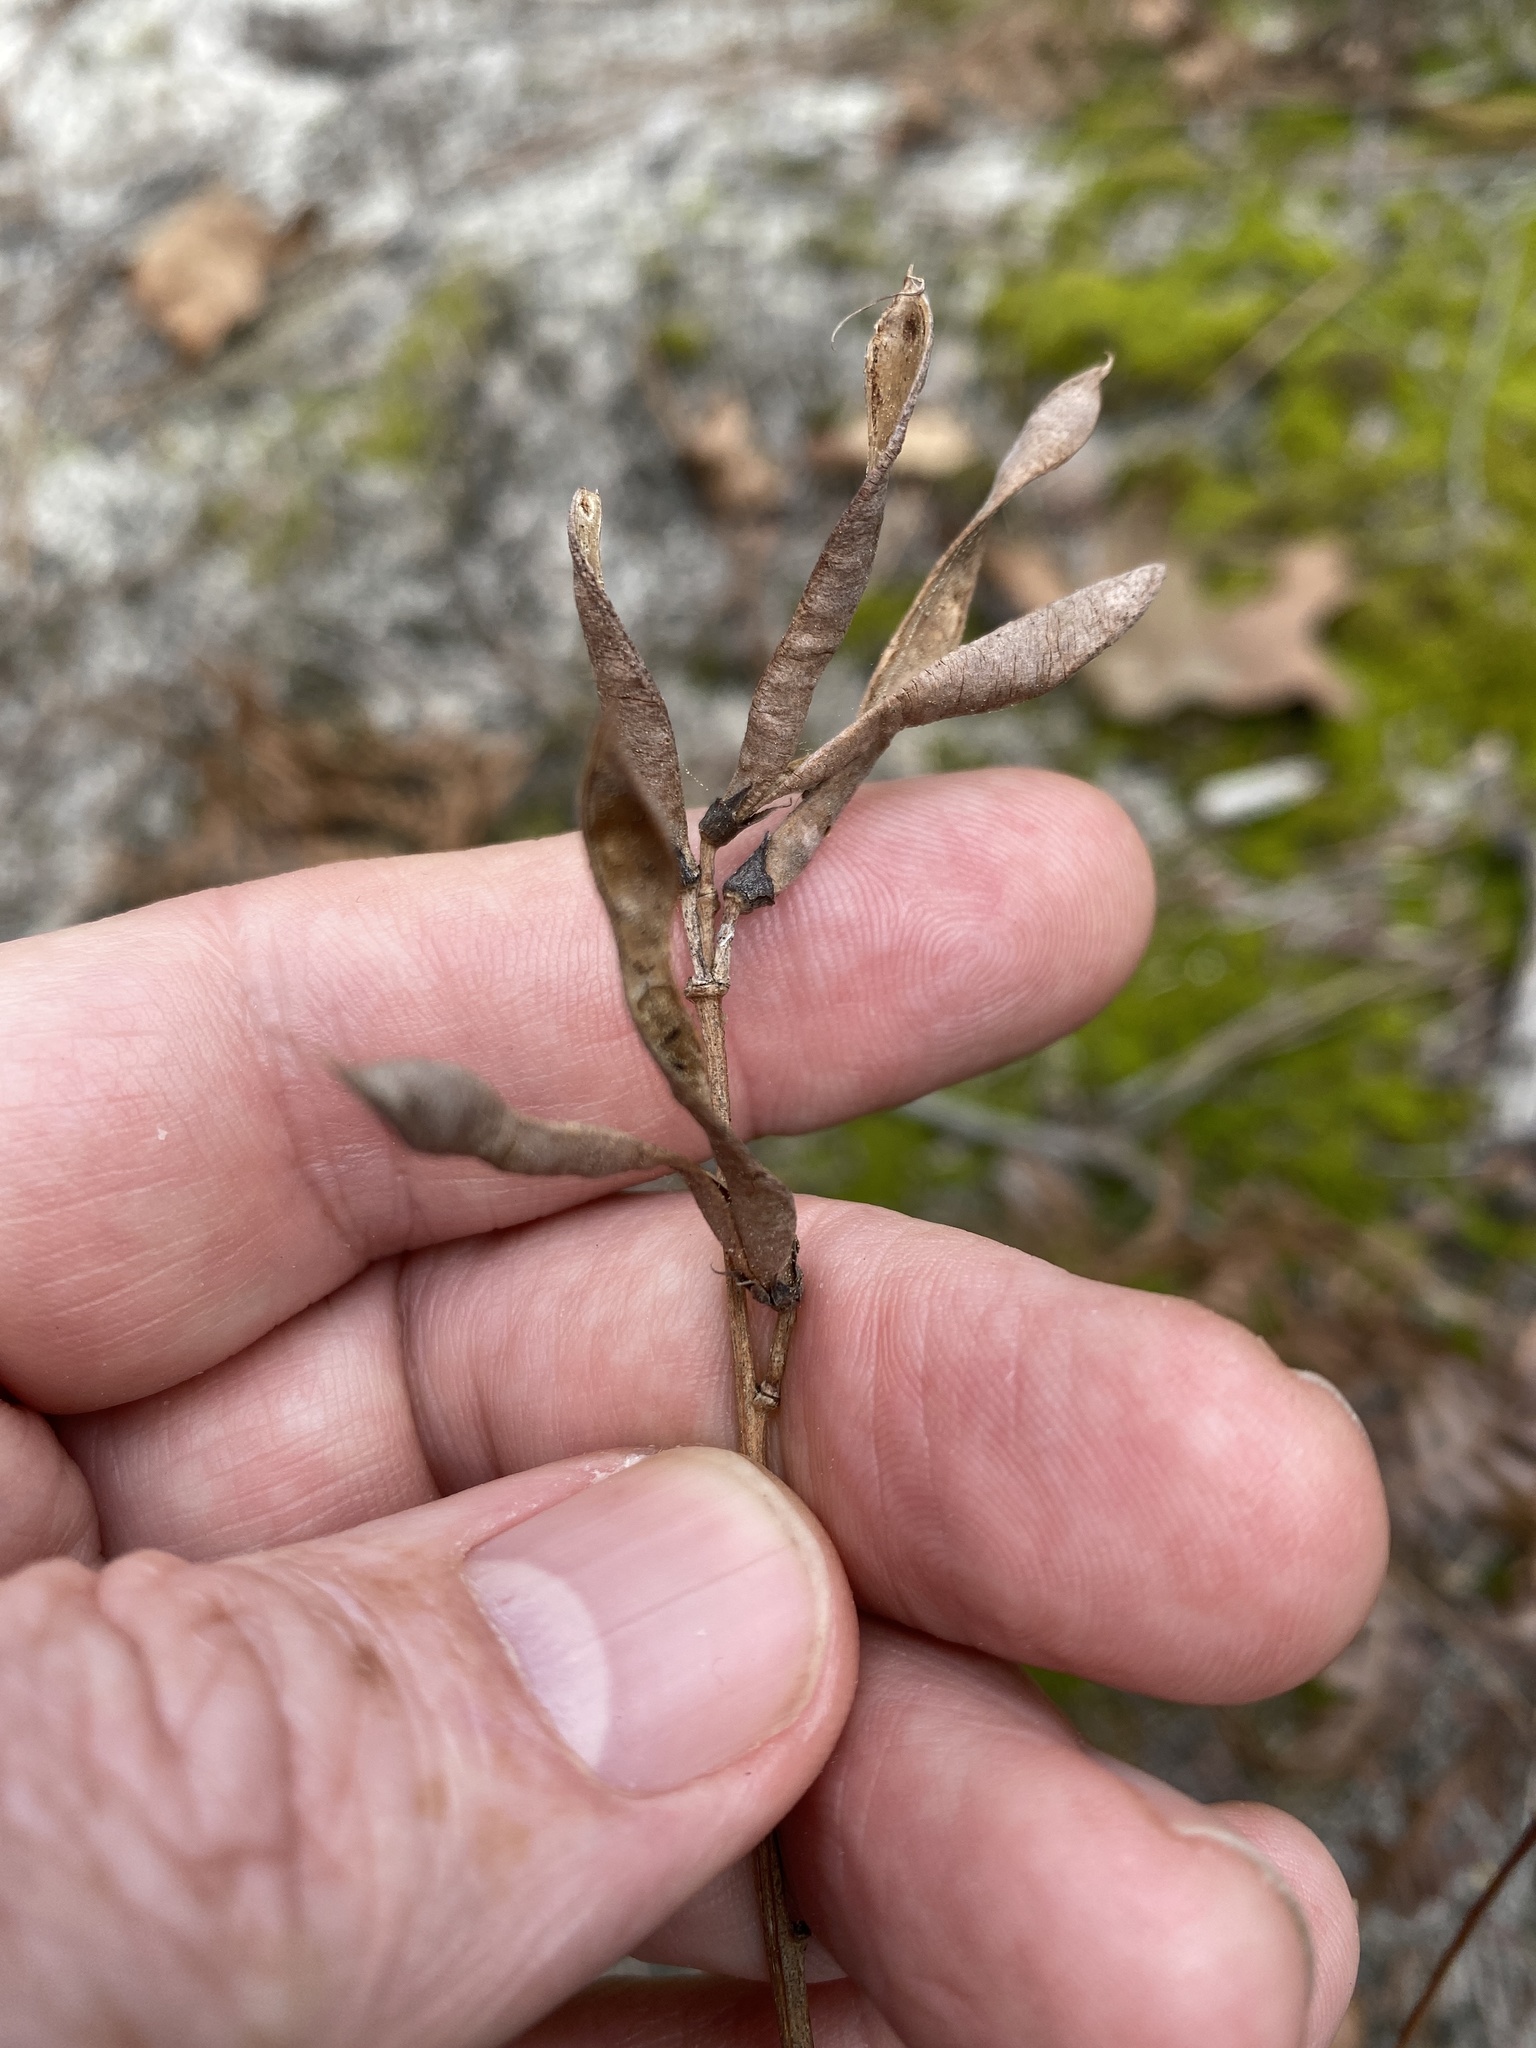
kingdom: Plantae
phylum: Tracheophyta
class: Magnoliopsida
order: Fabales
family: Fabaceae
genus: Tephrosia
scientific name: Tephrosia virginiana
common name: Rabbit-pea
